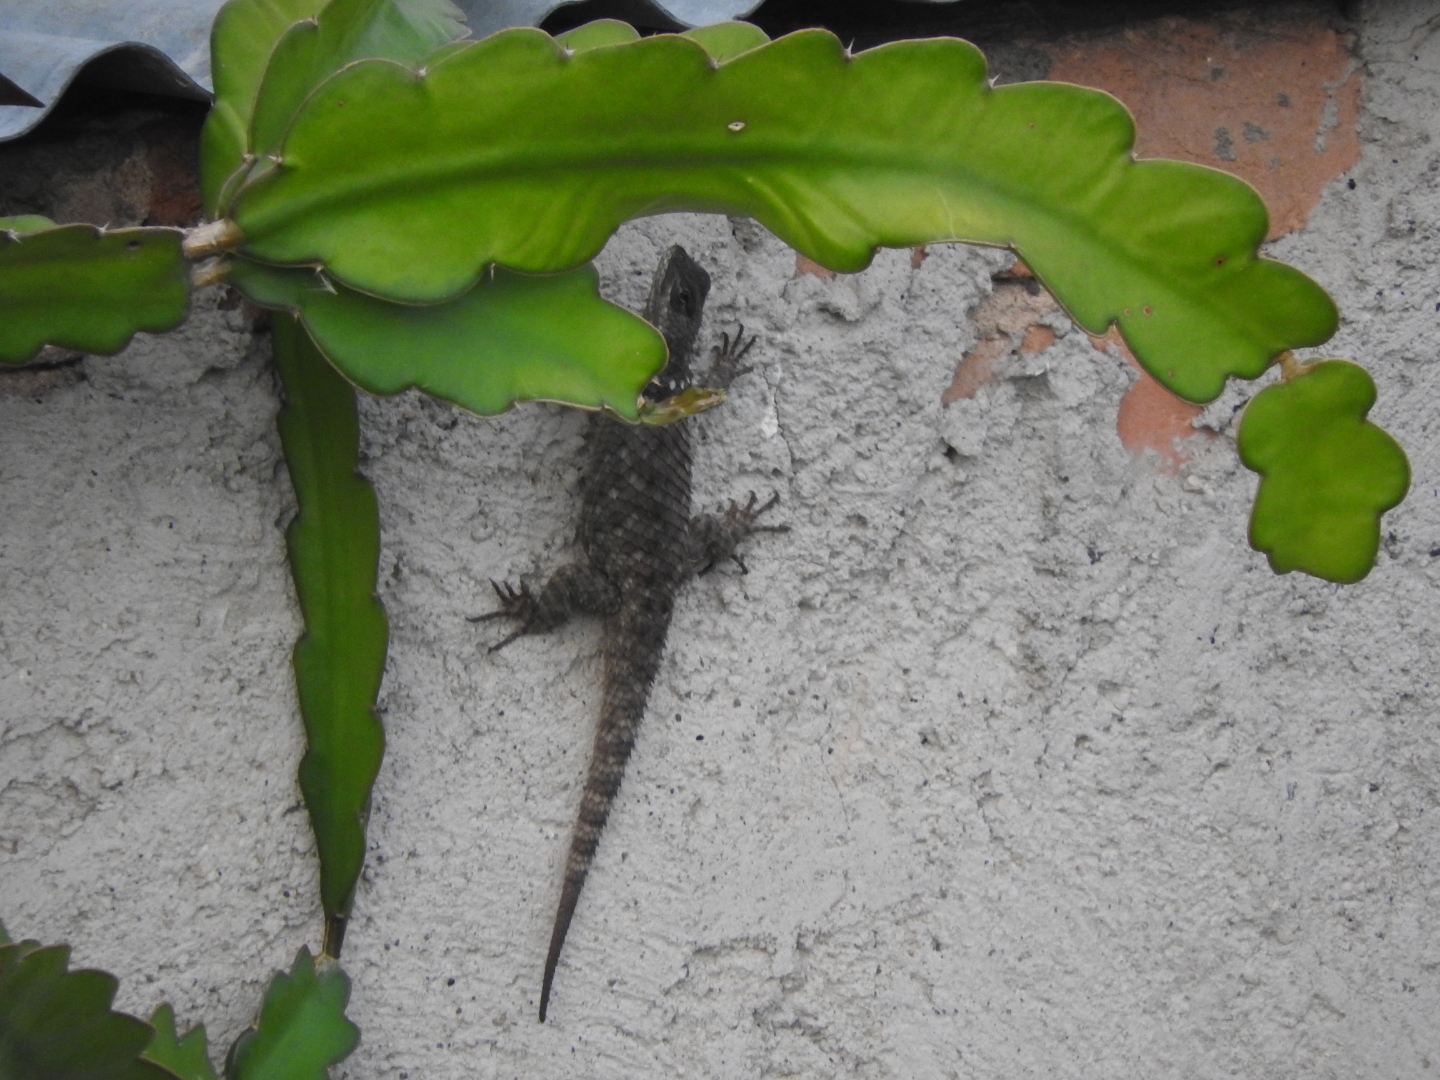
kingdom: Animalia
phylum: Chordata
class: Squamata
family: Phrynosomatidae
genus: Sceloporus
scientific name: Sceloporus torquatus
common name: Central plateau torquate lizard [melanogaster]
